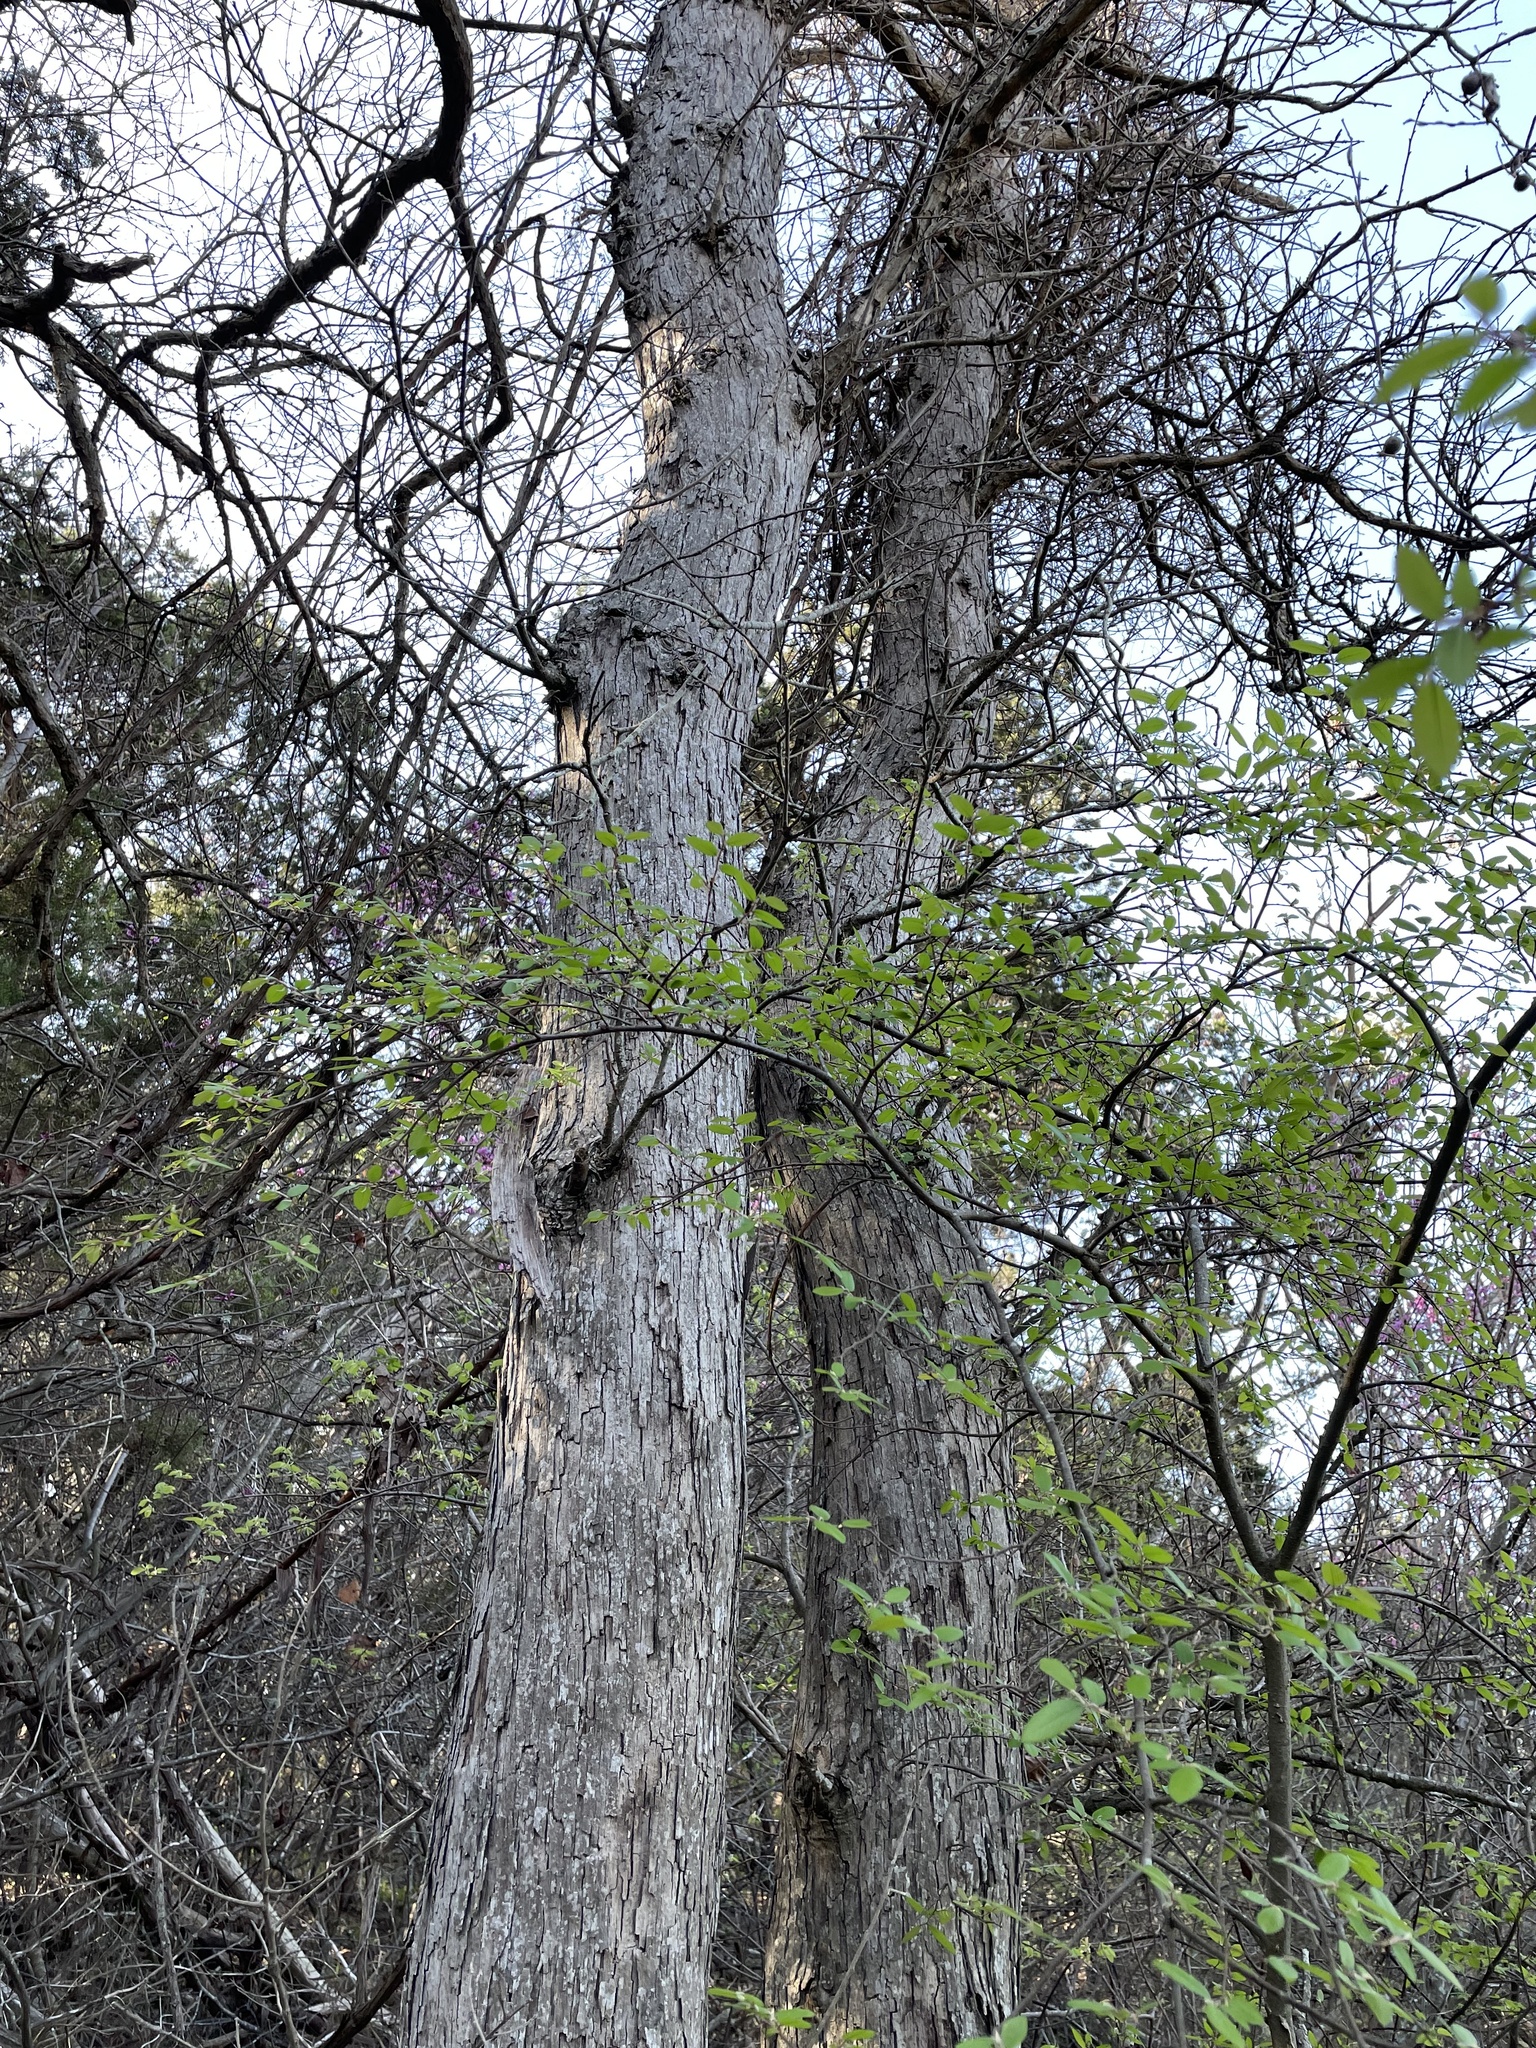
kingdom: Plantae
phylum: Tracheophyta
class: Magnoliopsida
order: Fagales
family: Fagaceae
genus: Quercus
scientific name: Quercus sinuata
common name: Durand oak
